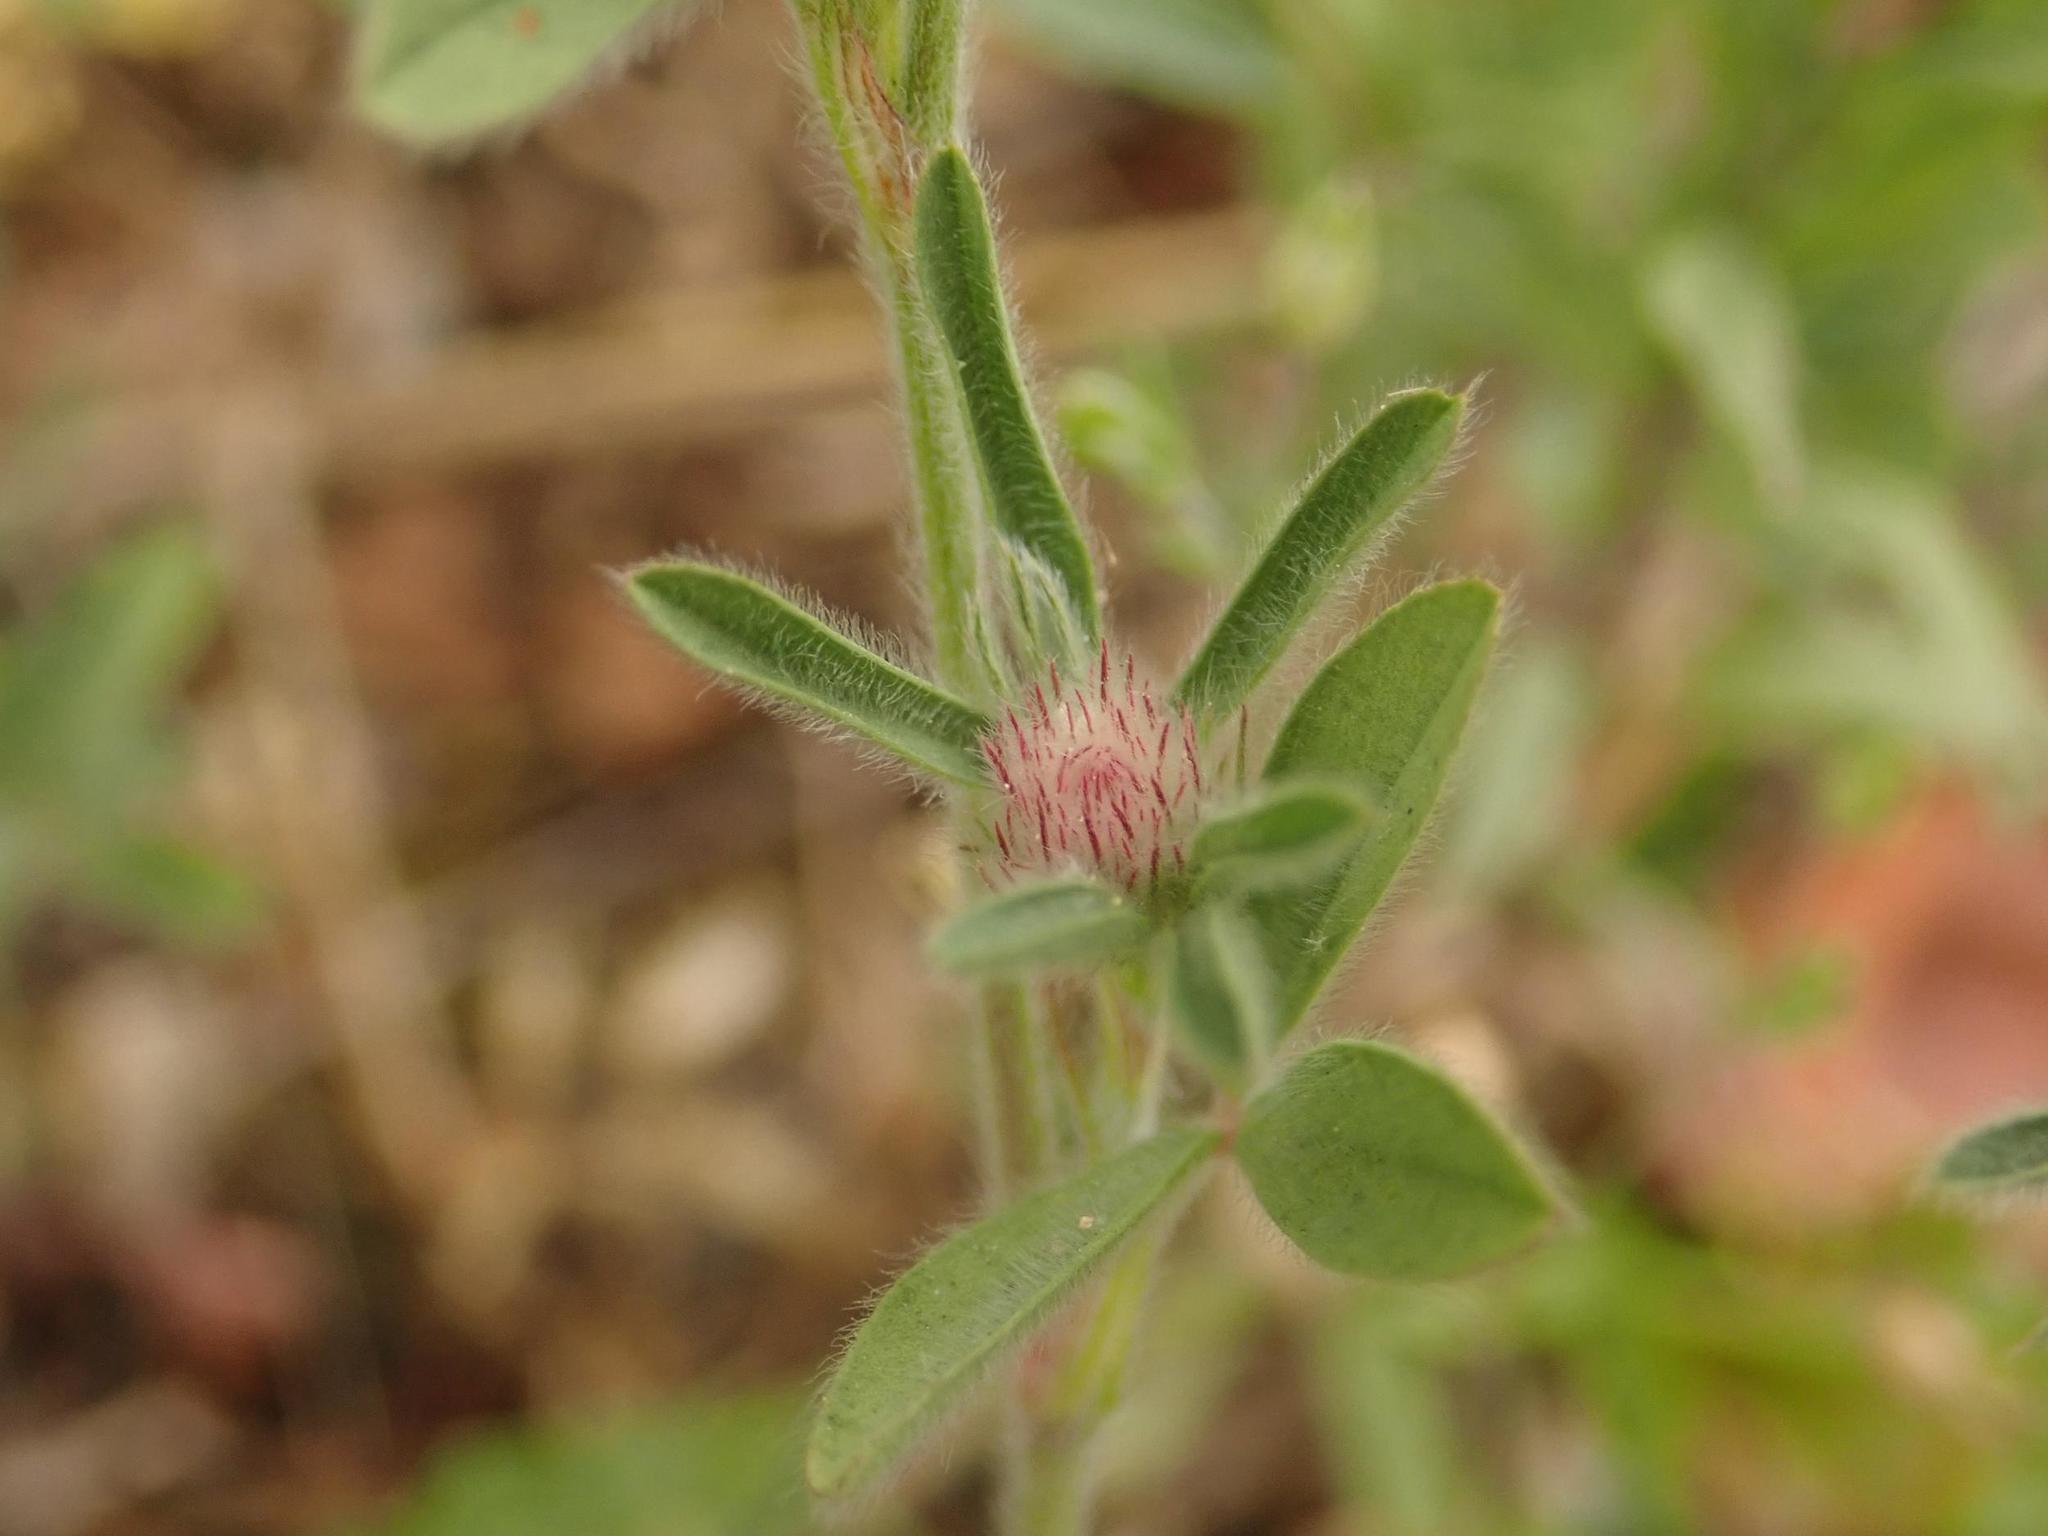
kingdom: Plantae
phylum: Tracheophyta
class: Magnoliopsida
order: Fabales
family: Fabaceae
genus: Trifolium
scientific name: Trifolium arvense
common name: Hare's-foot clover
